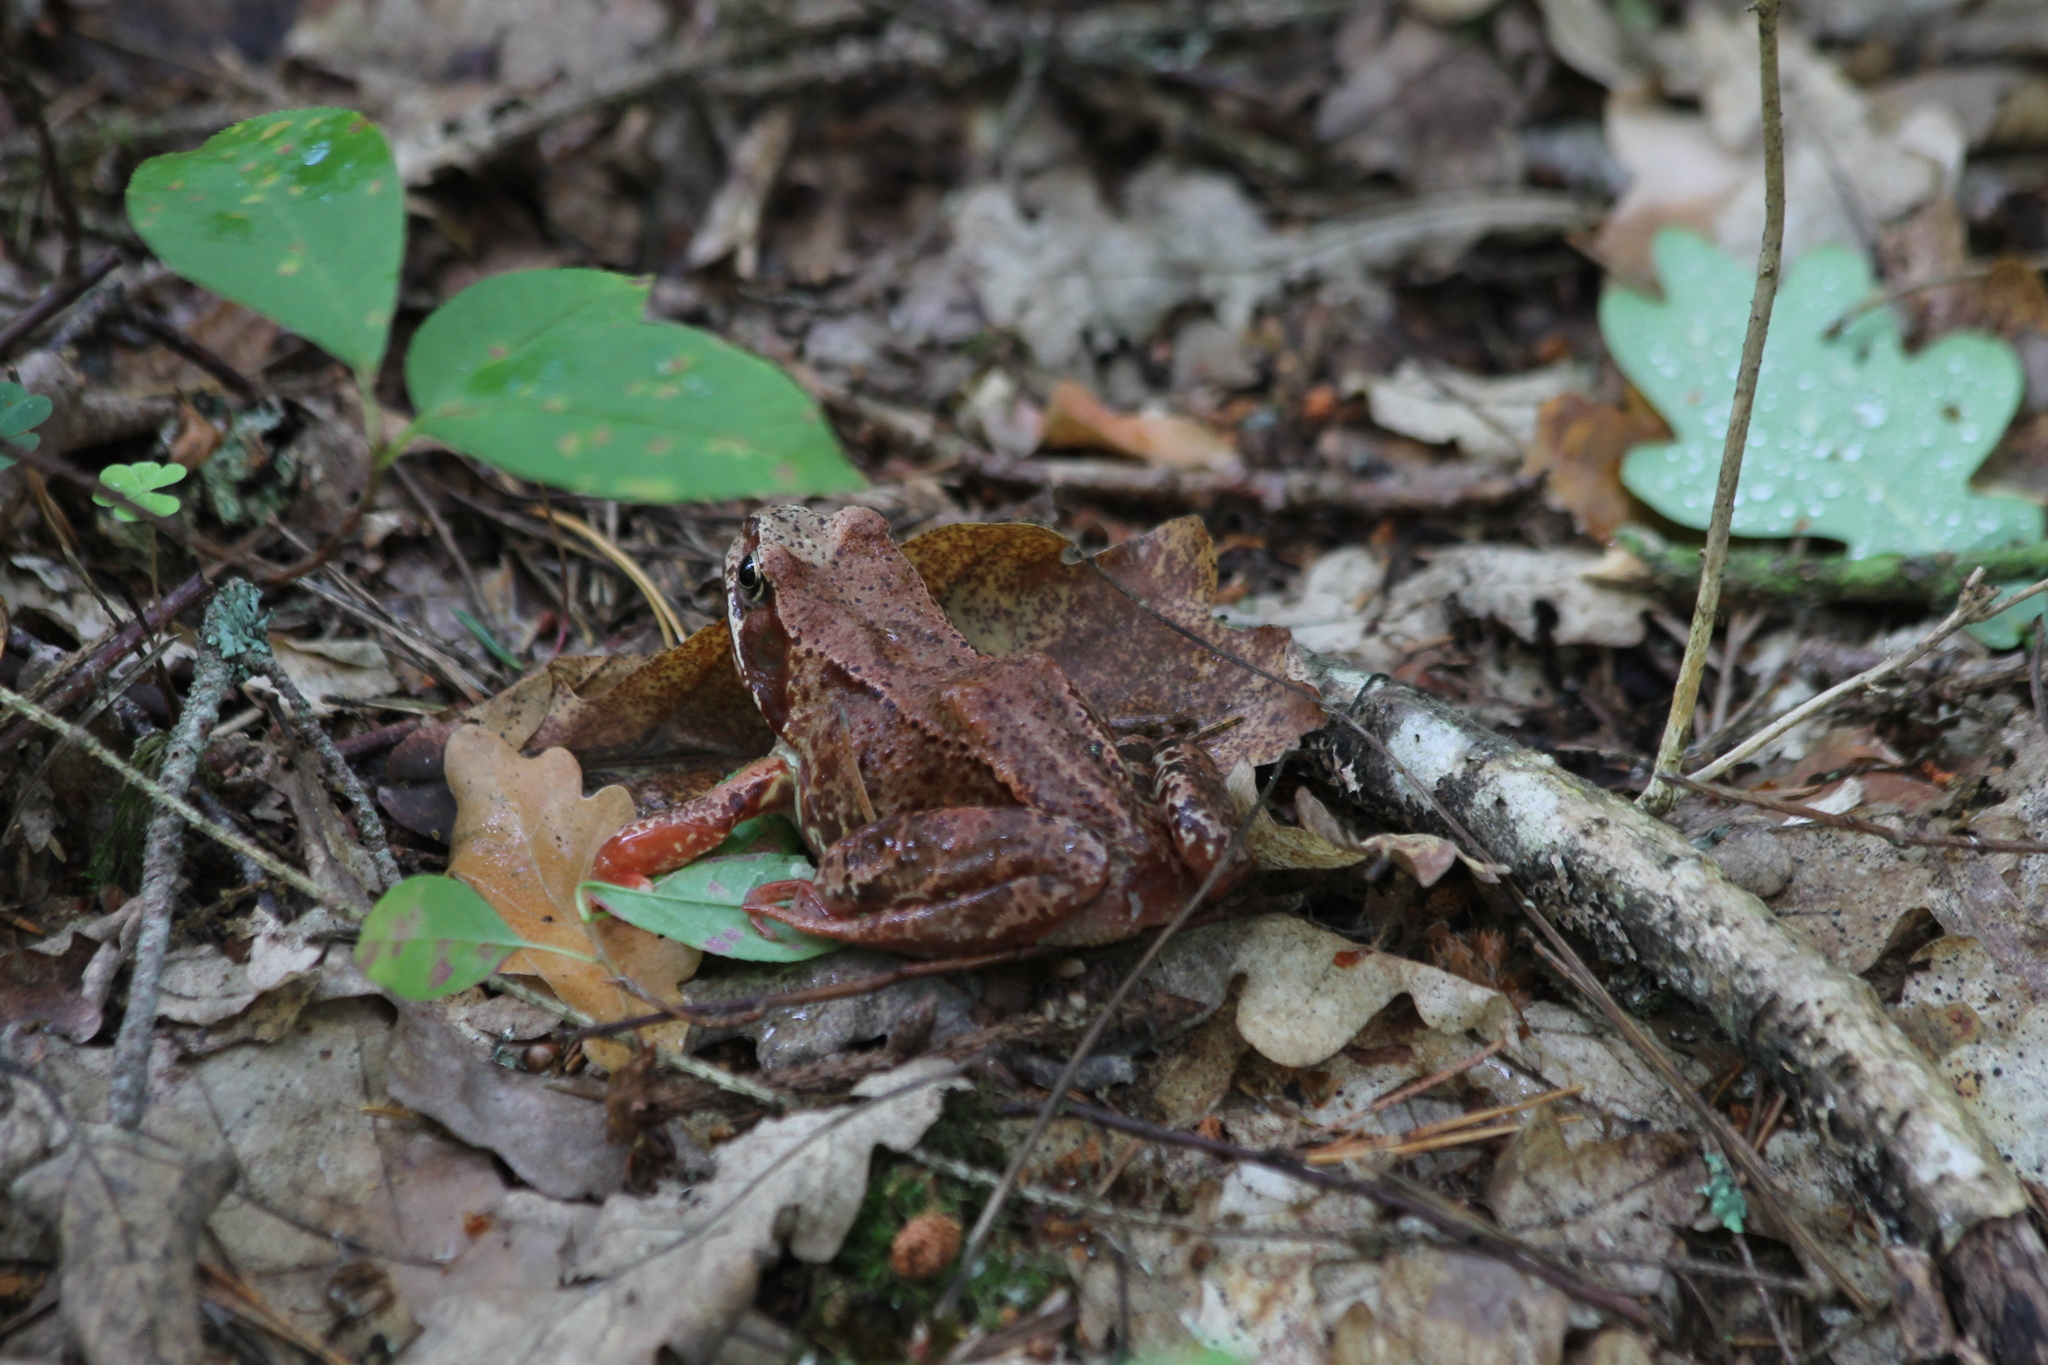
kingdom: Animalia
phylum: Chordata
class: Amphibia
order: Anura
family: Ranidae
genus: Rana
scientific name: Rana temporaria
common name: Common frog
